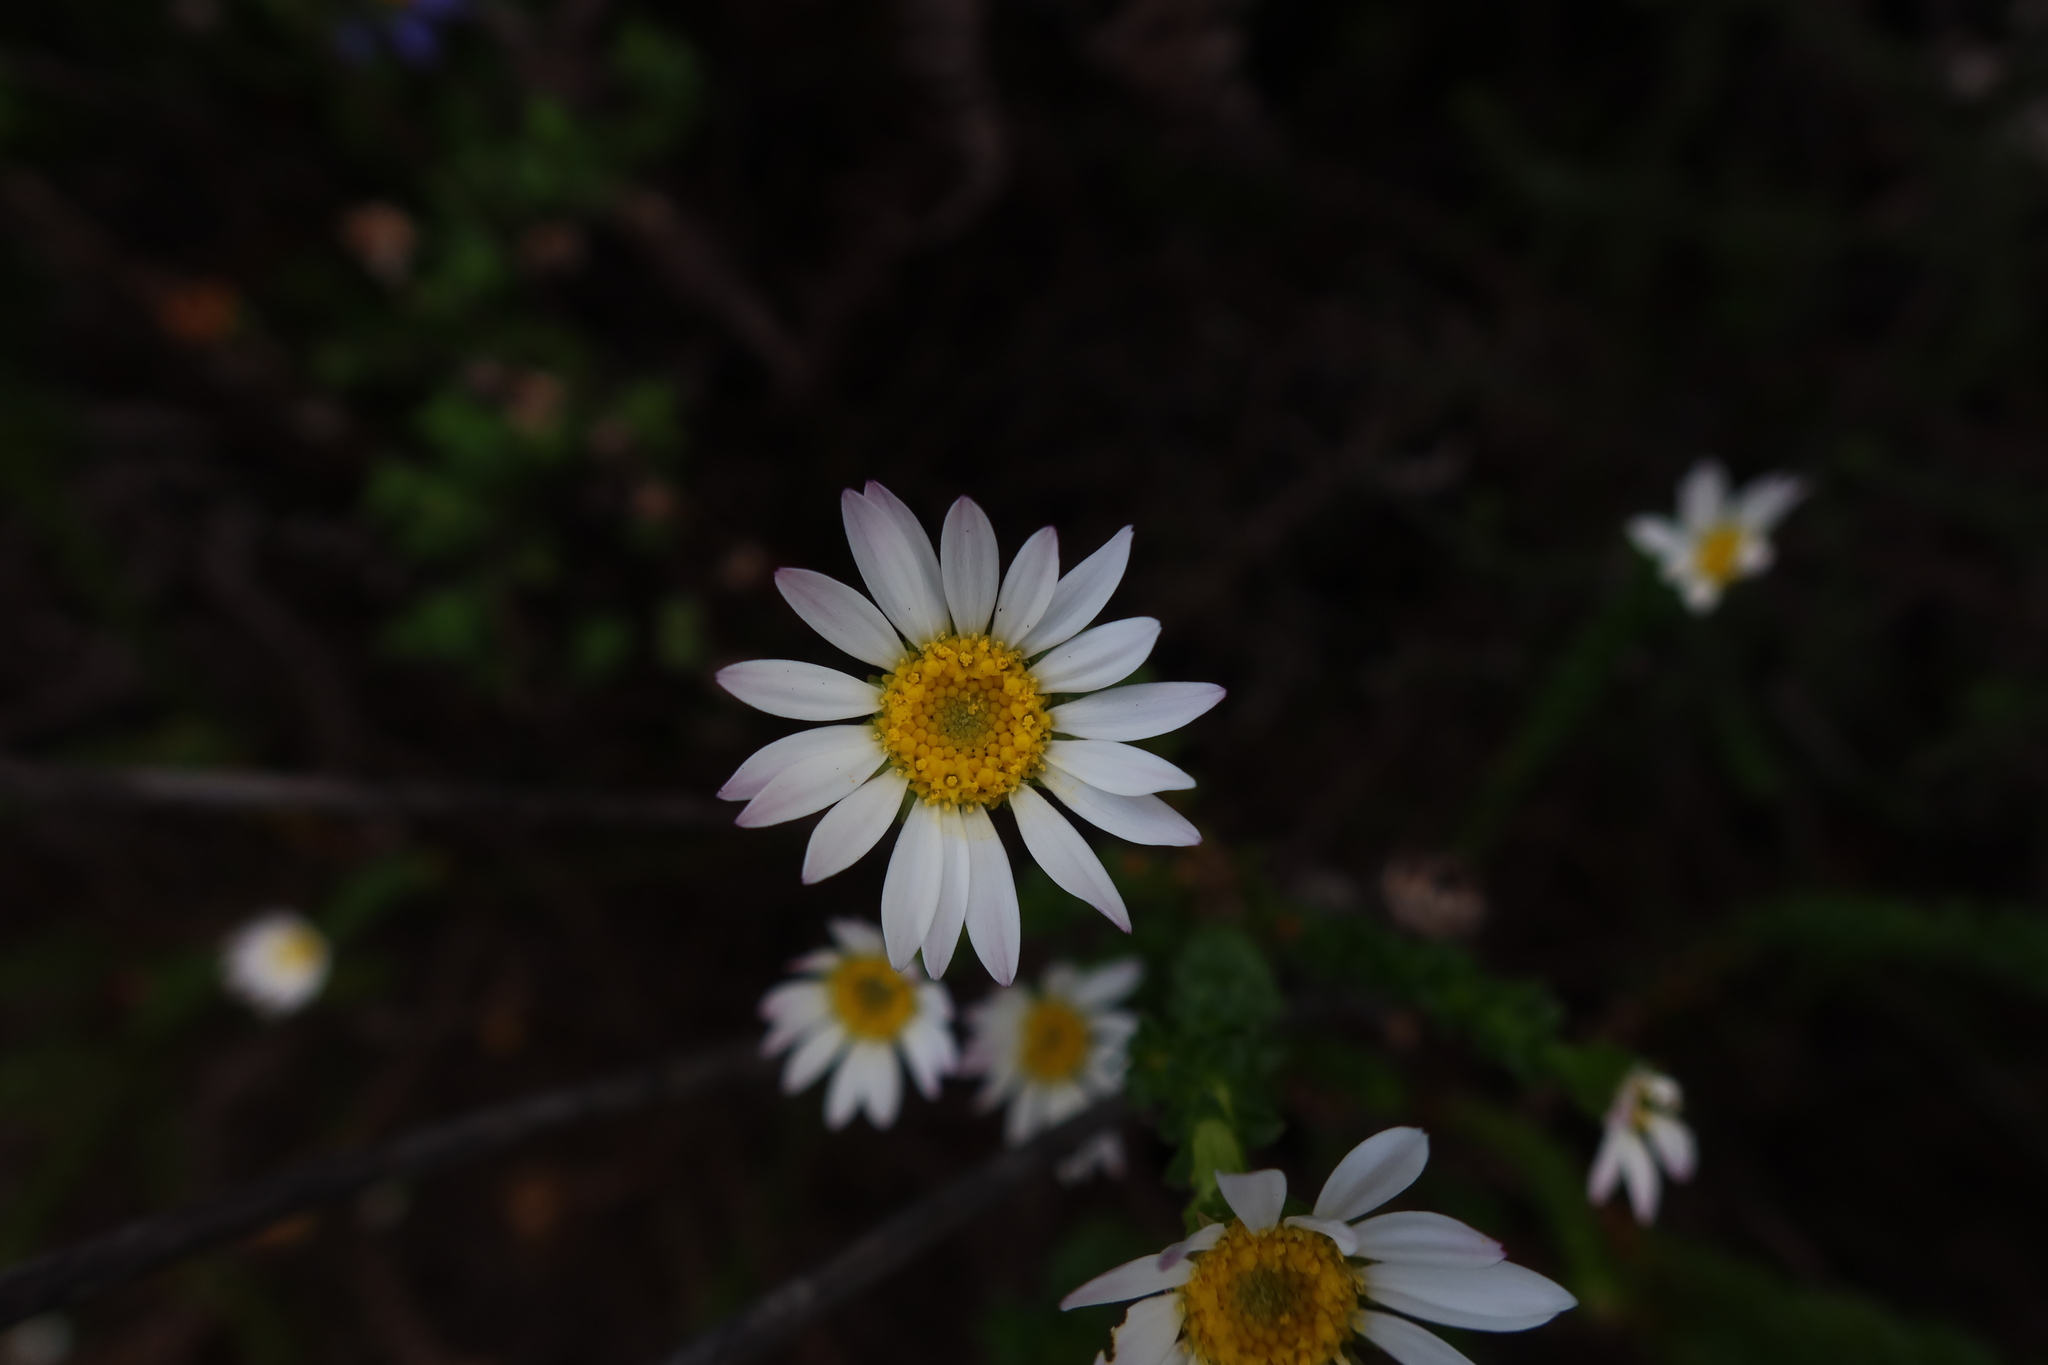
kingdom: Plantae
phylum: Tracheophyta
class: Magnoliopsida
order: Asterales
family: Asteraceae
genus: Polyarrhena
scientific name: Polyarrhena reflexa
